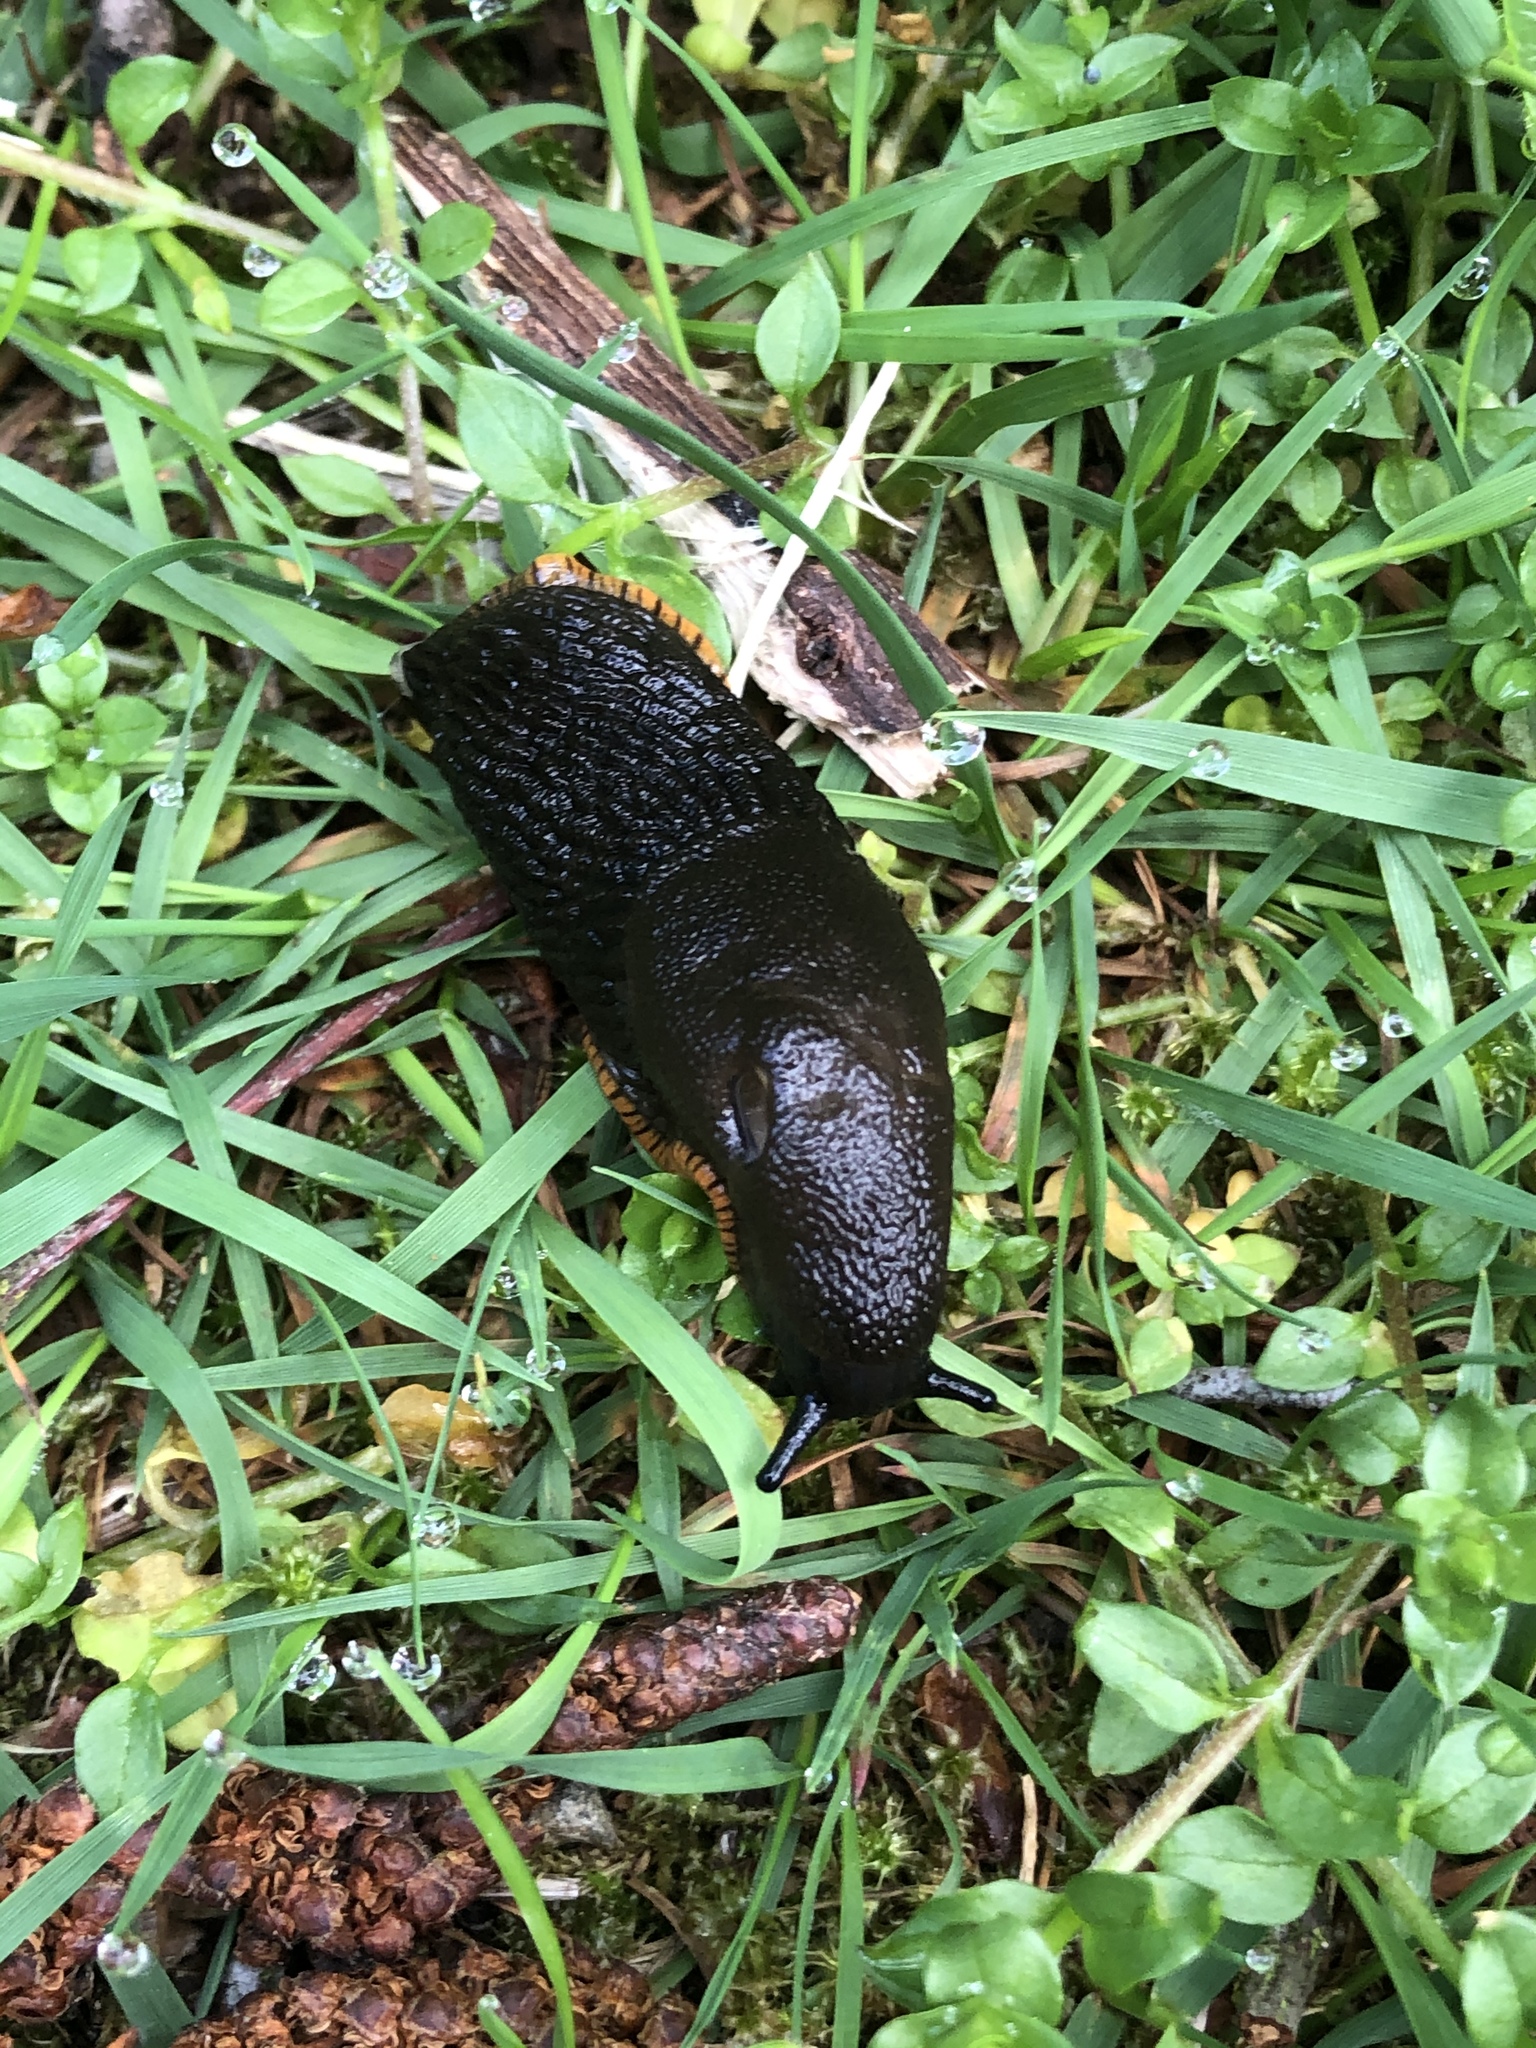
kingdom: Animalia
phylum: Mollusca
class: Gastropoda
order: Stylommatophora
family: Arionidae
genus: Arion
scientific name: Arion rufus
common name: Chocolate arion
